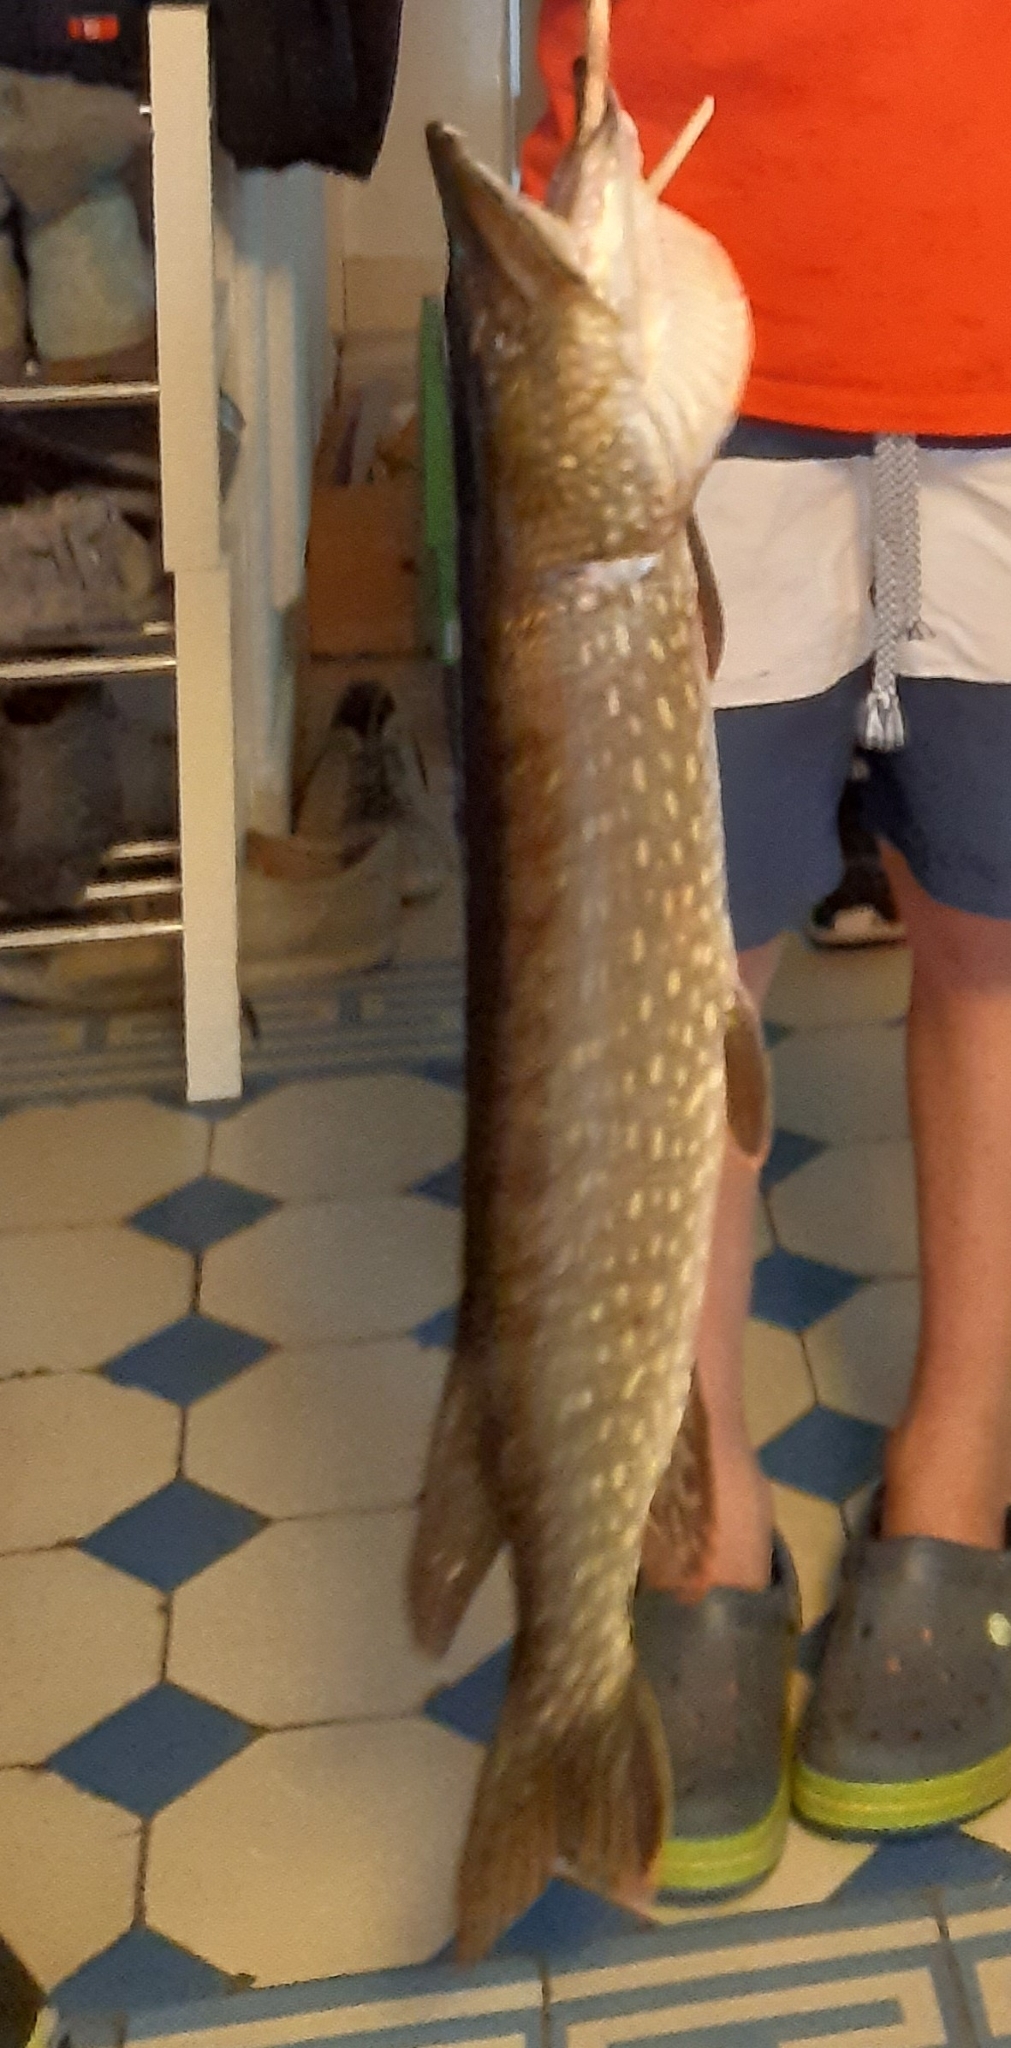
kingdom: Animalia
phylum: Chordata
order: Esociformes
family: Esocidae
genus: Esox
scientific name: Esox lucius
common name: Northern pike
